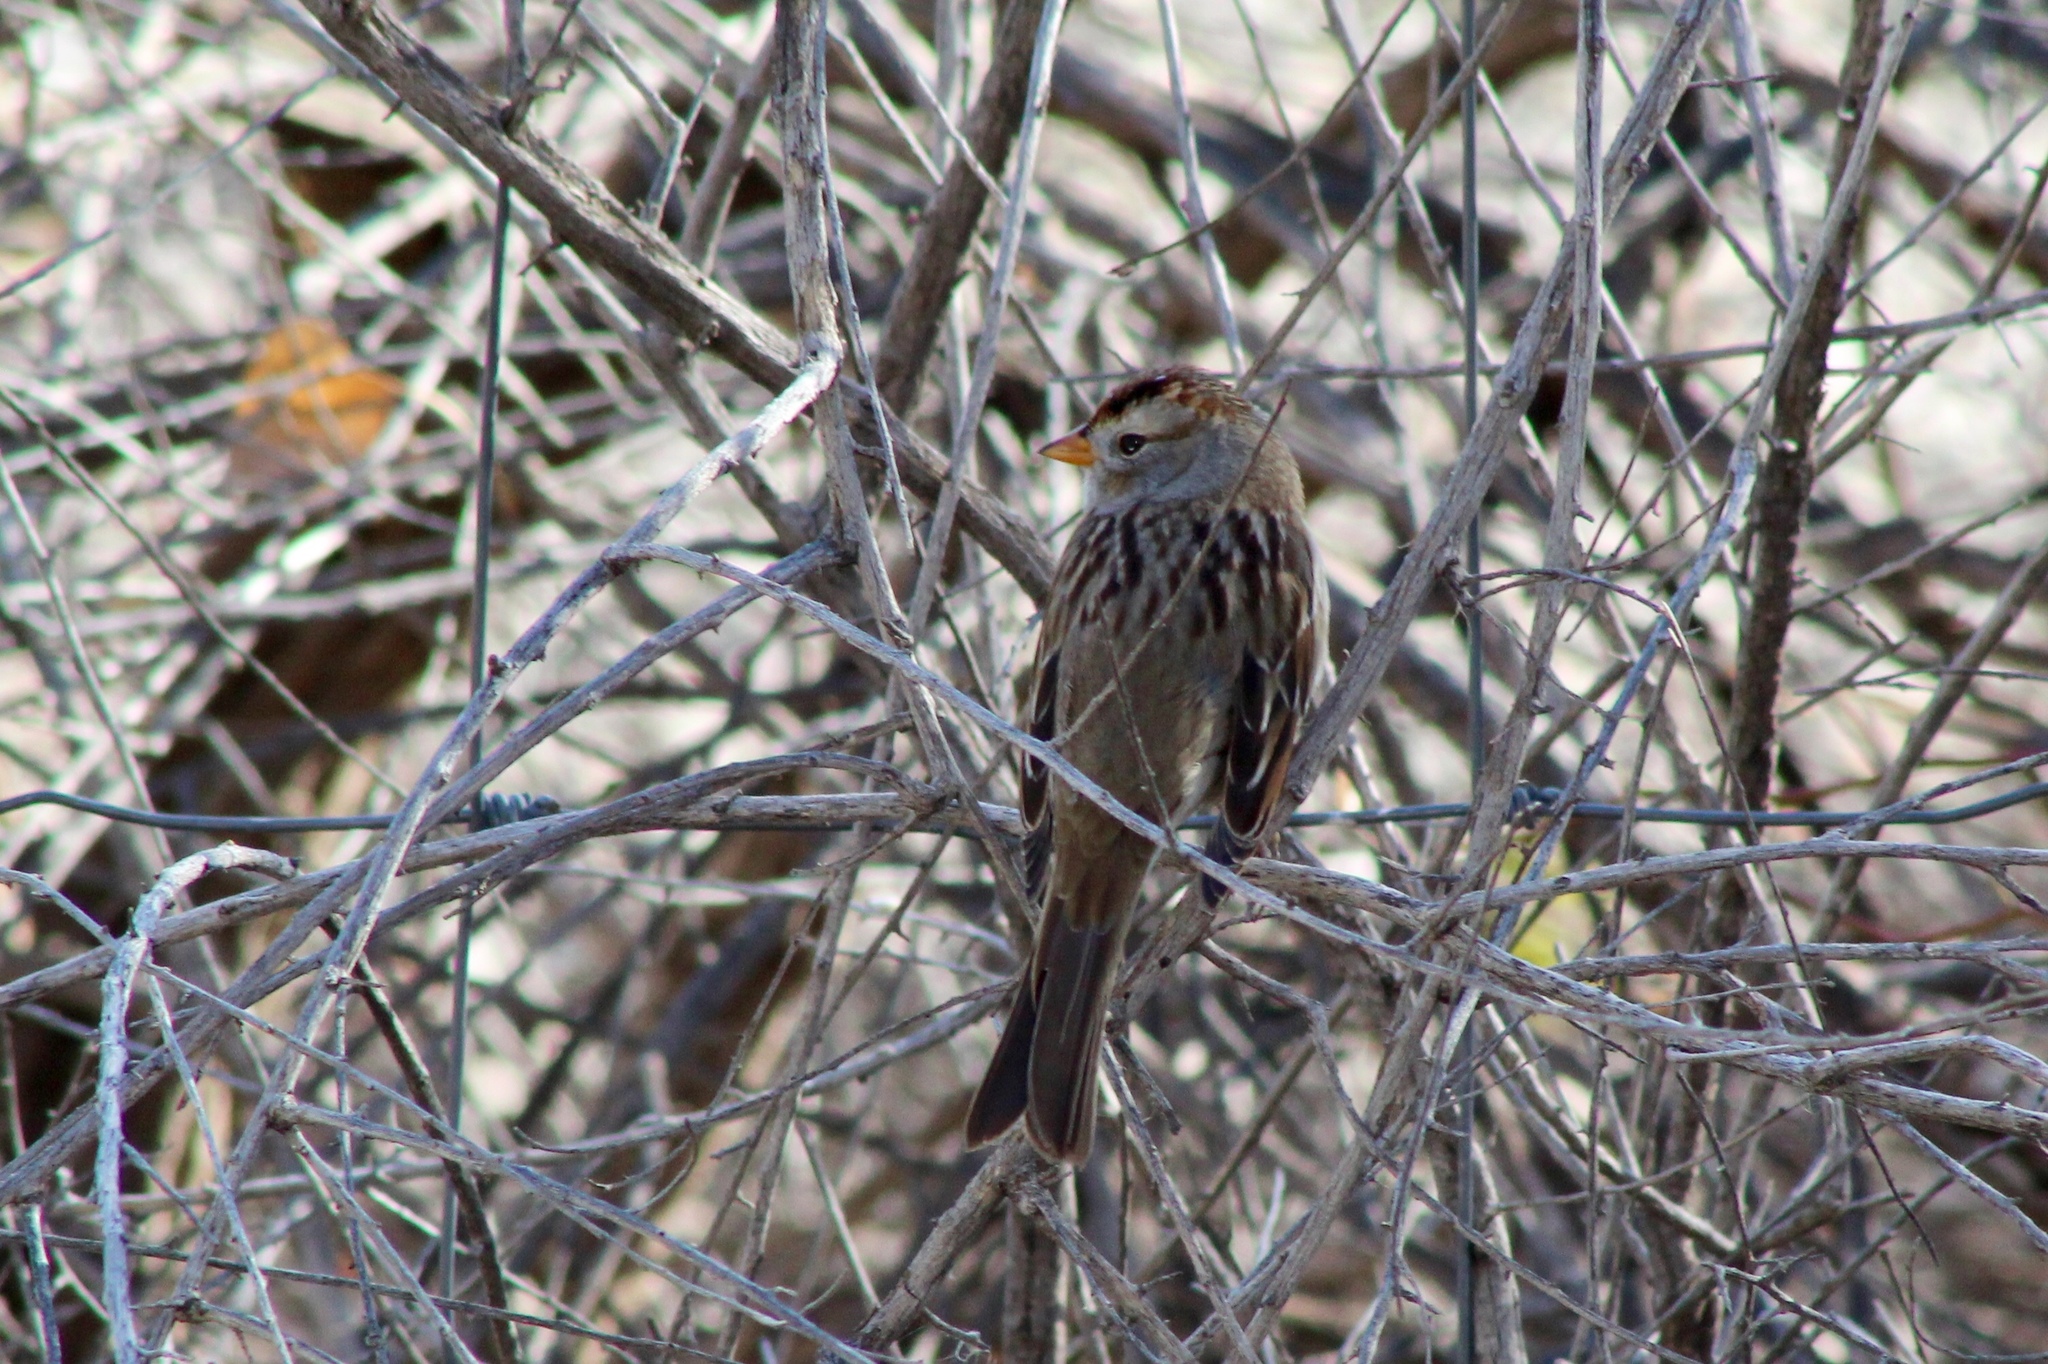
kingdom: Animalia
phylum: Chordata
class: Aves
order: Passeriformes
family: Passerellidae
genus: Zonotrichia
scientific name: Zonotrichia leucophrys
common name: White-crowned sparrow
